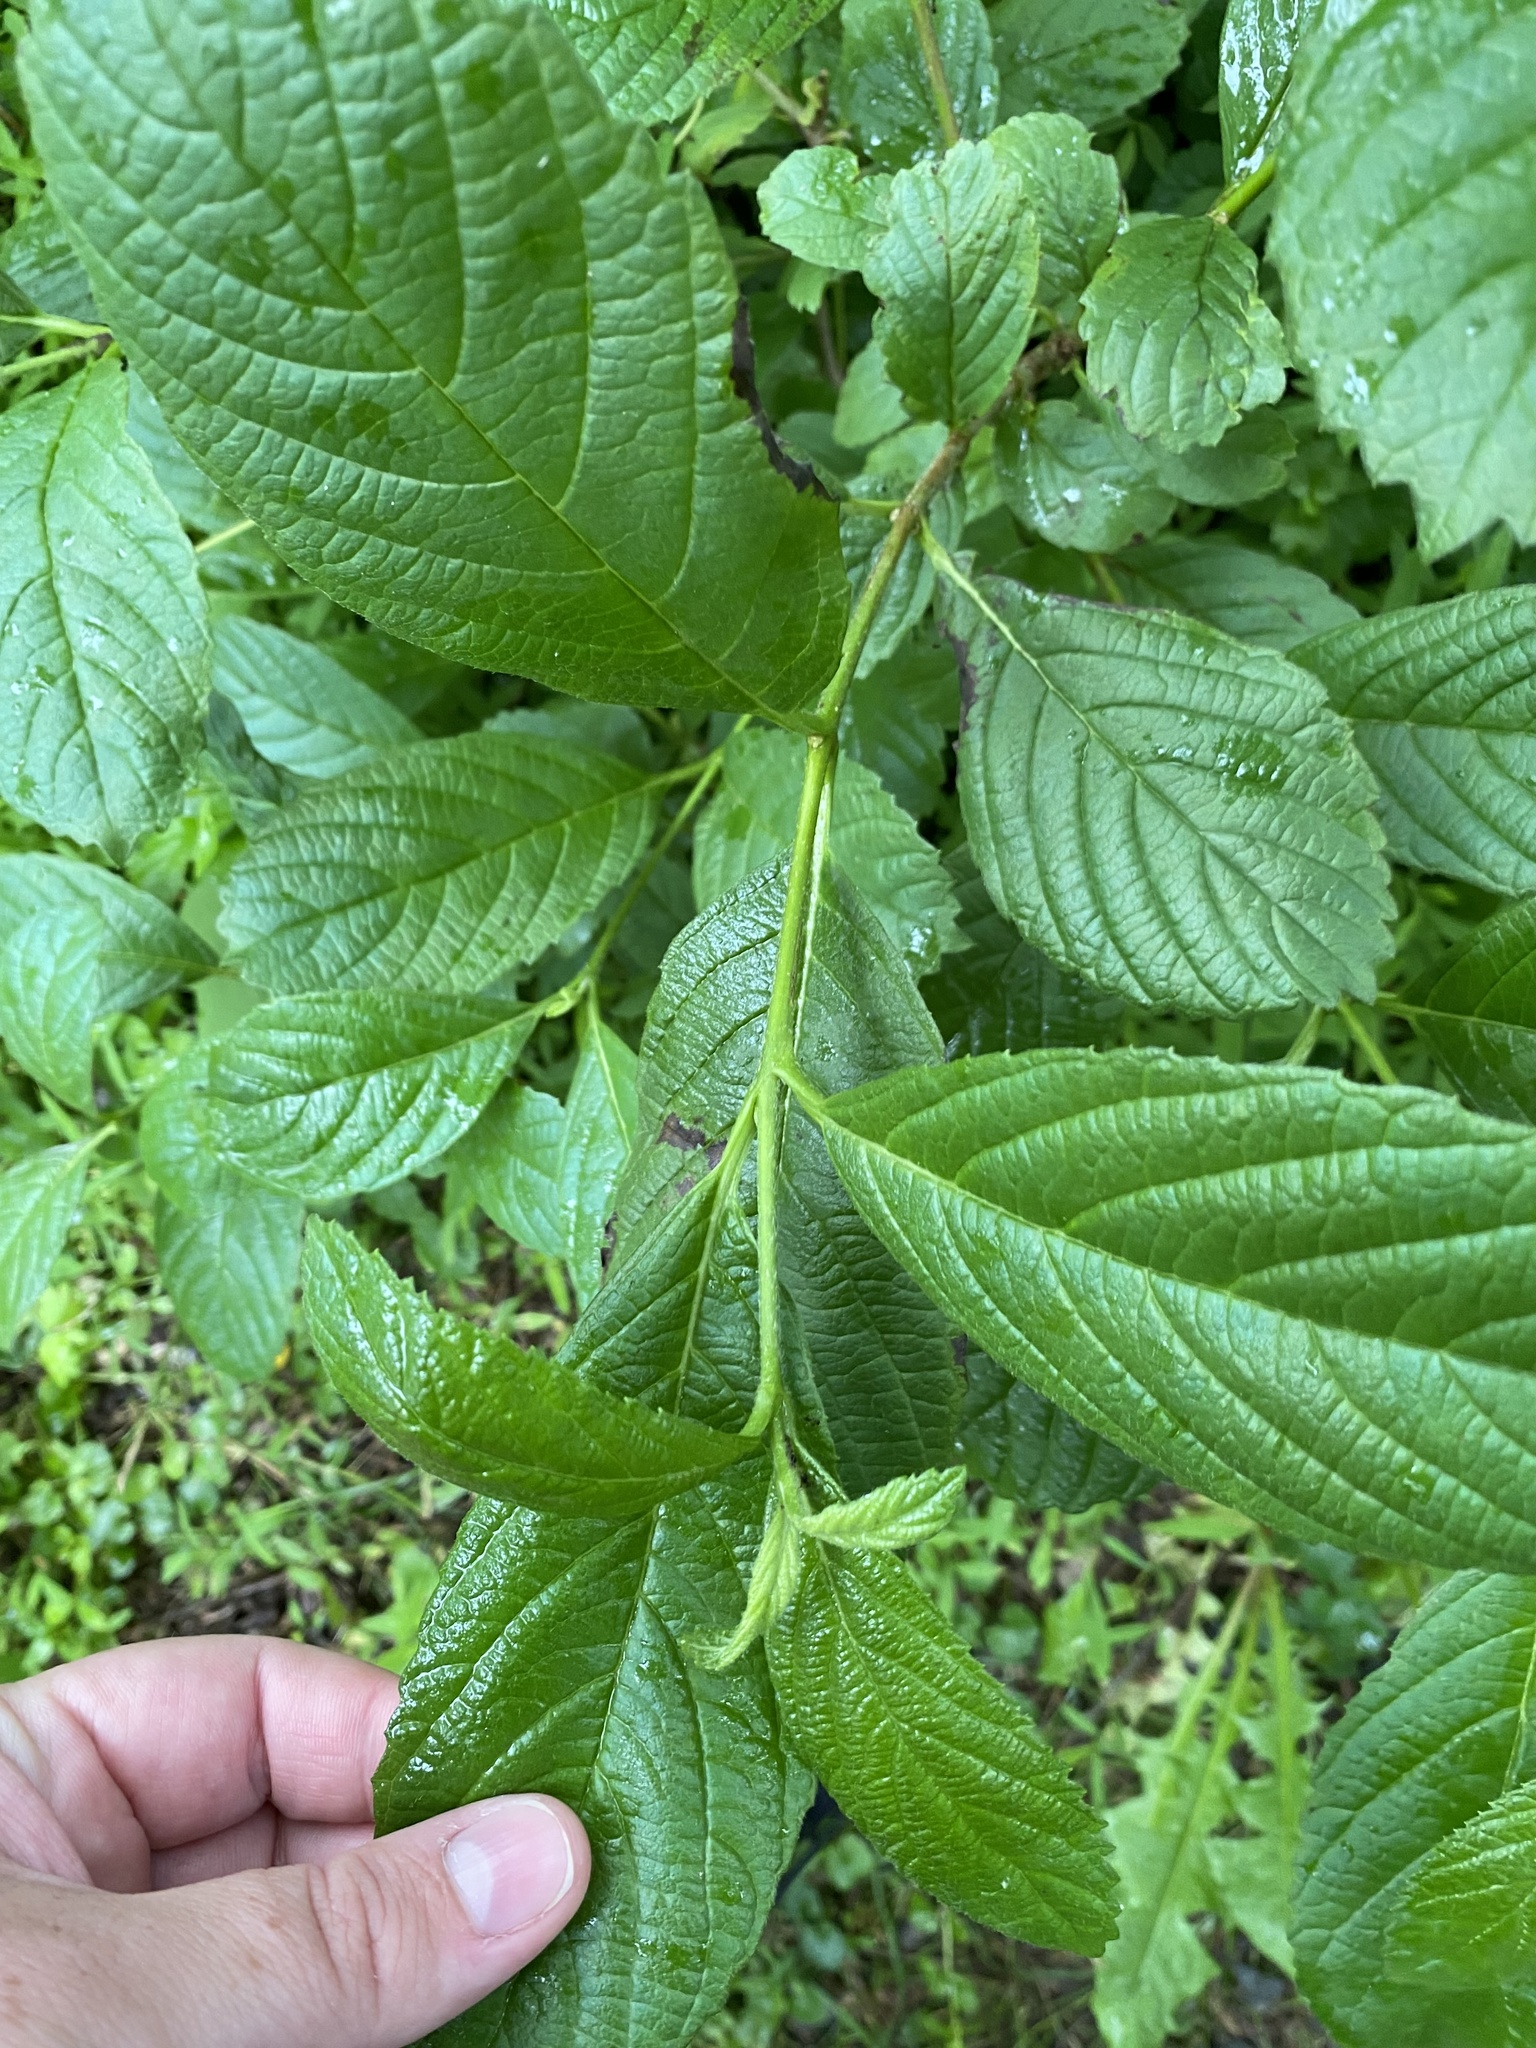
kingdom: Plantae
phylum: Tracheophyta
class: Magnoliopsida
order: Dipsacales
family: Viburnaceae
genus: Viburnum
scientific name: Viburnum sieboldii
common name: Siebold's arrowwood
